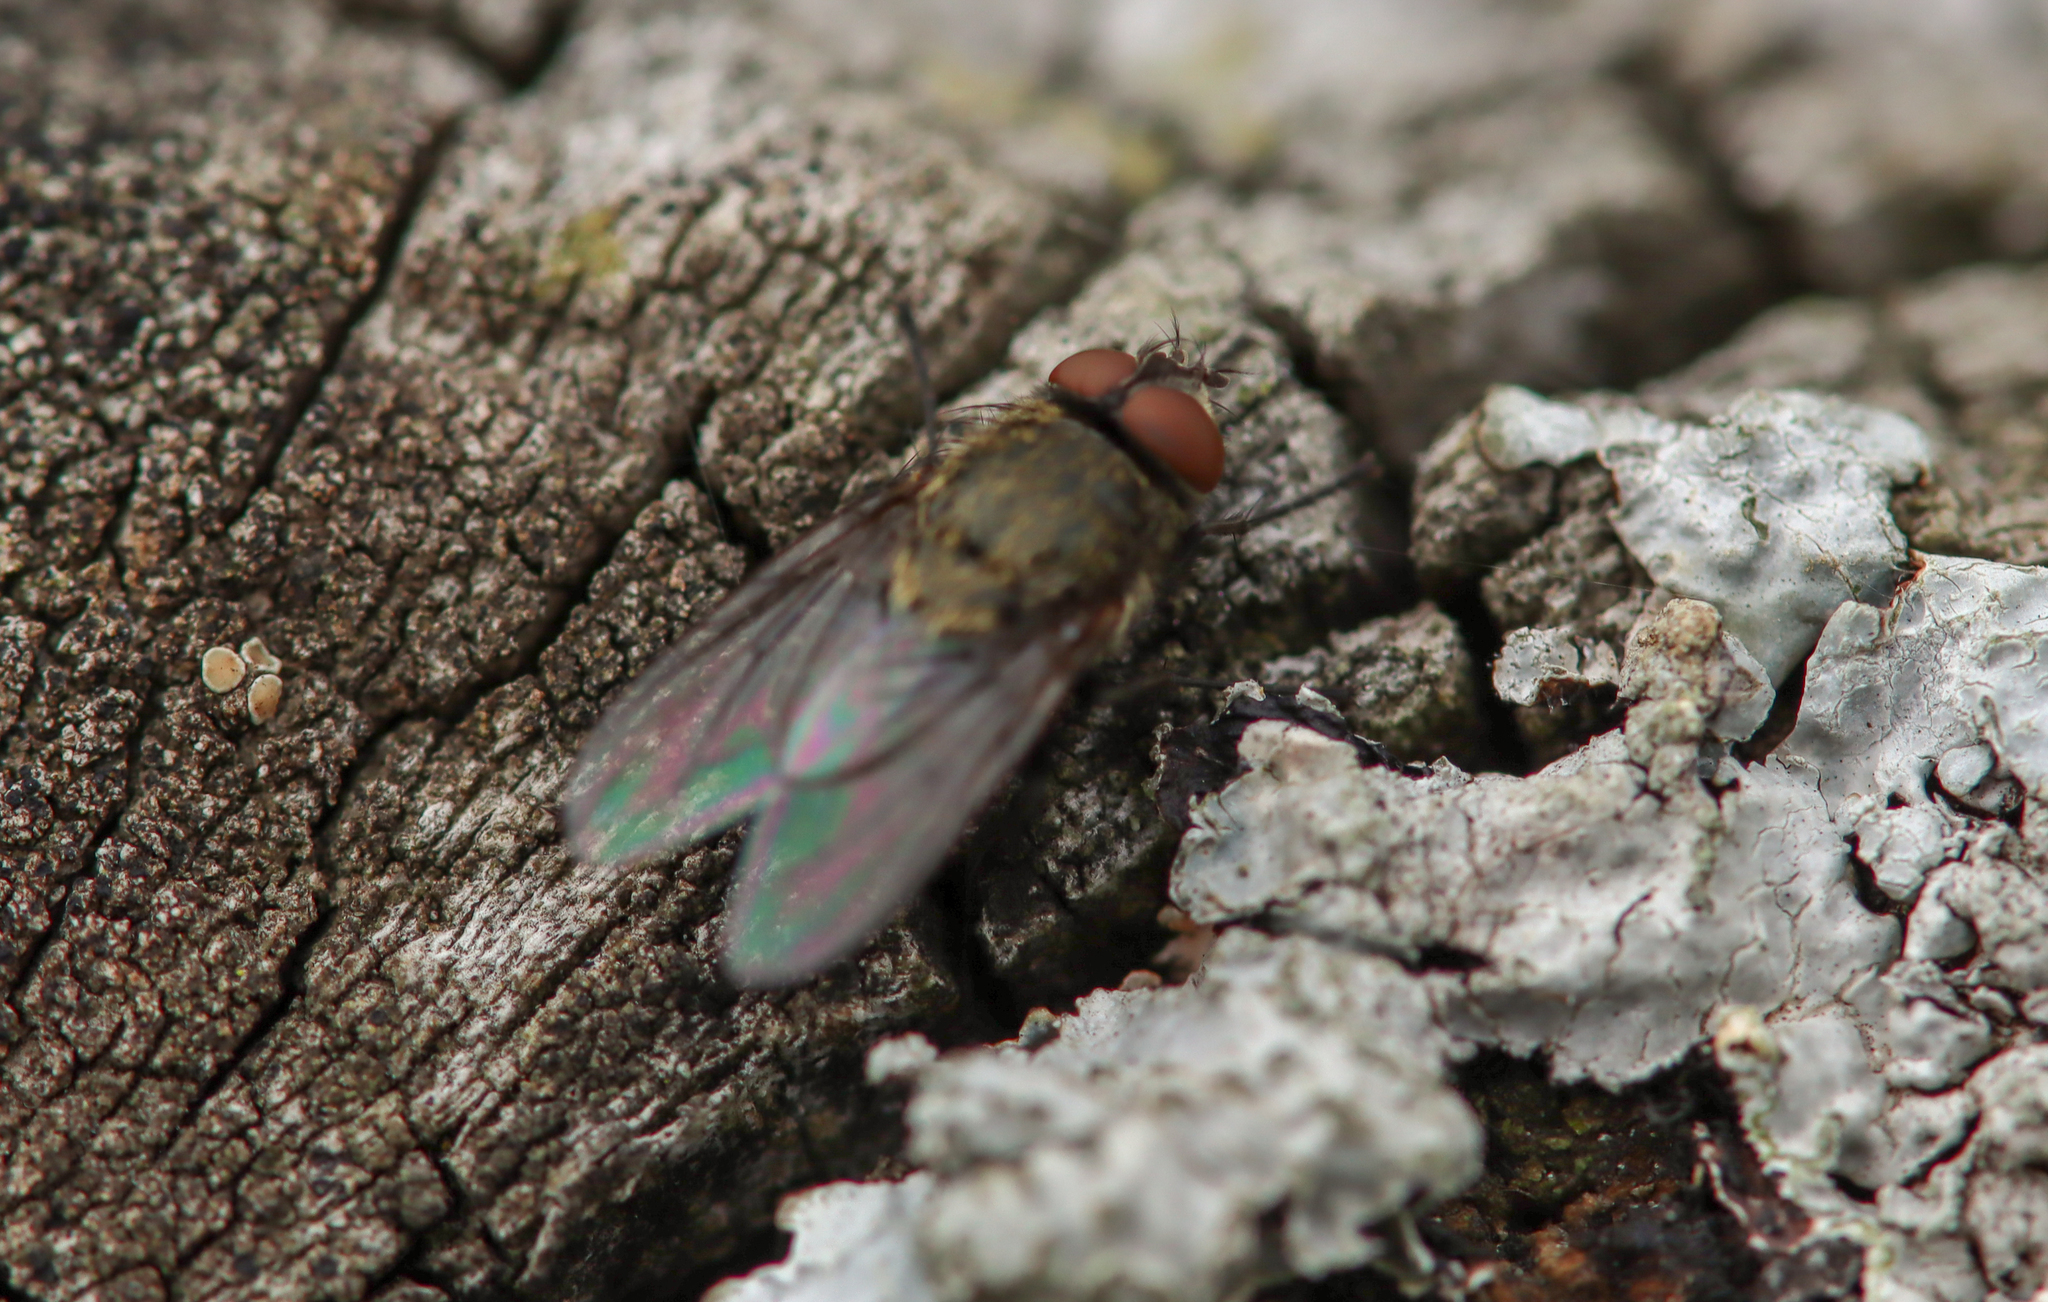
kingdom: Animalia
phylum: Arthropoda
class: Insecta
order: Diptera
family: Polleniidae
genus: Pollenia
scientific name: Pollenia
